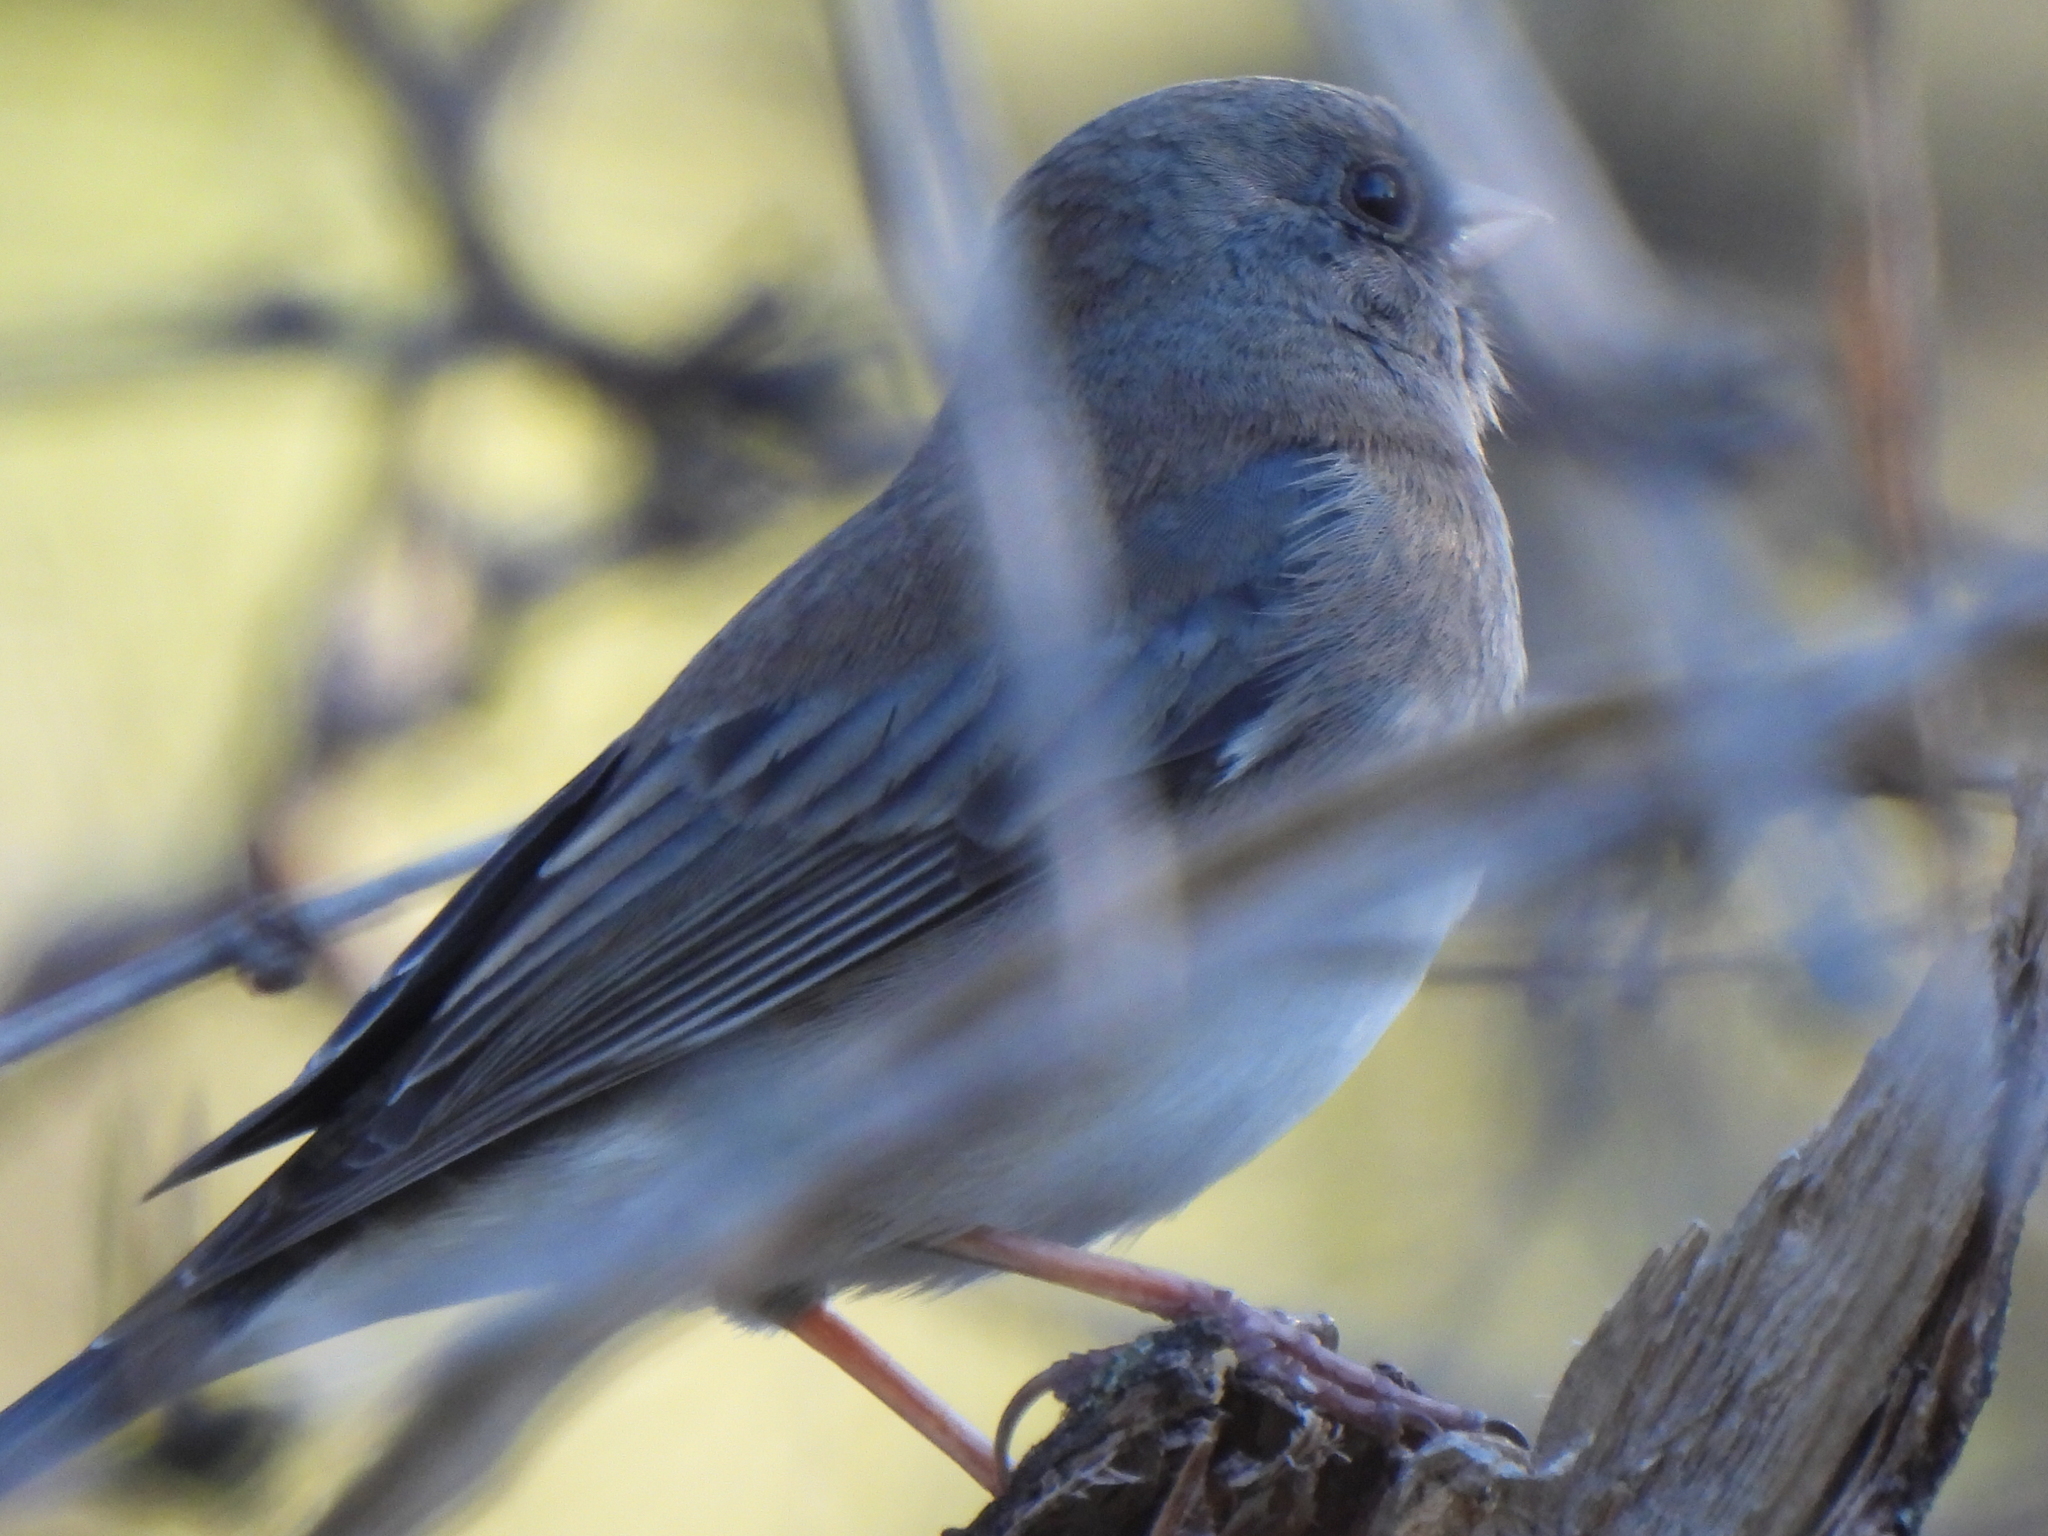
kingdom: Animalia
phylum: Chordata
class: Aves
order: Passeriformes
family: Passerellidae
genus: Junco
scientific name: Junco hyemalis
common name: Dark-eyed junco
